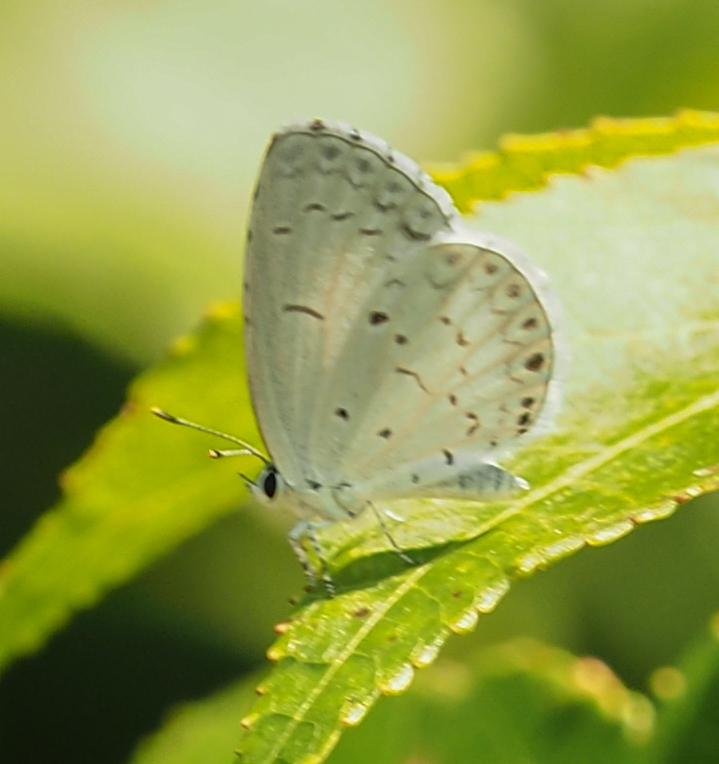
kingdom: Animalia
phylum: Arthropoda
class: Insecta
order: Lepidoptera
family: Lycaenidae
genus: Cyaniris
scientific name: Cyaniris neglecta
